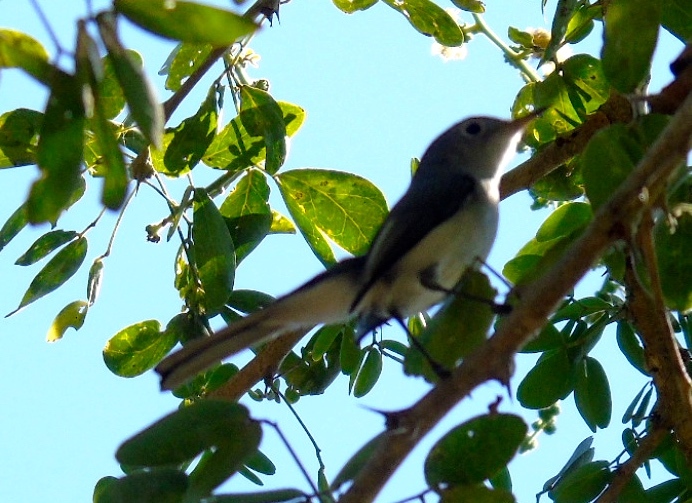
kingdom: Animalia
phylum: Chordata
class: Aves
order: Passeriformes
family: Polioptilidae
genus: Polioptila
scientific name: Polioptila caerulea
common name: Blue-gray gnatcatcher
